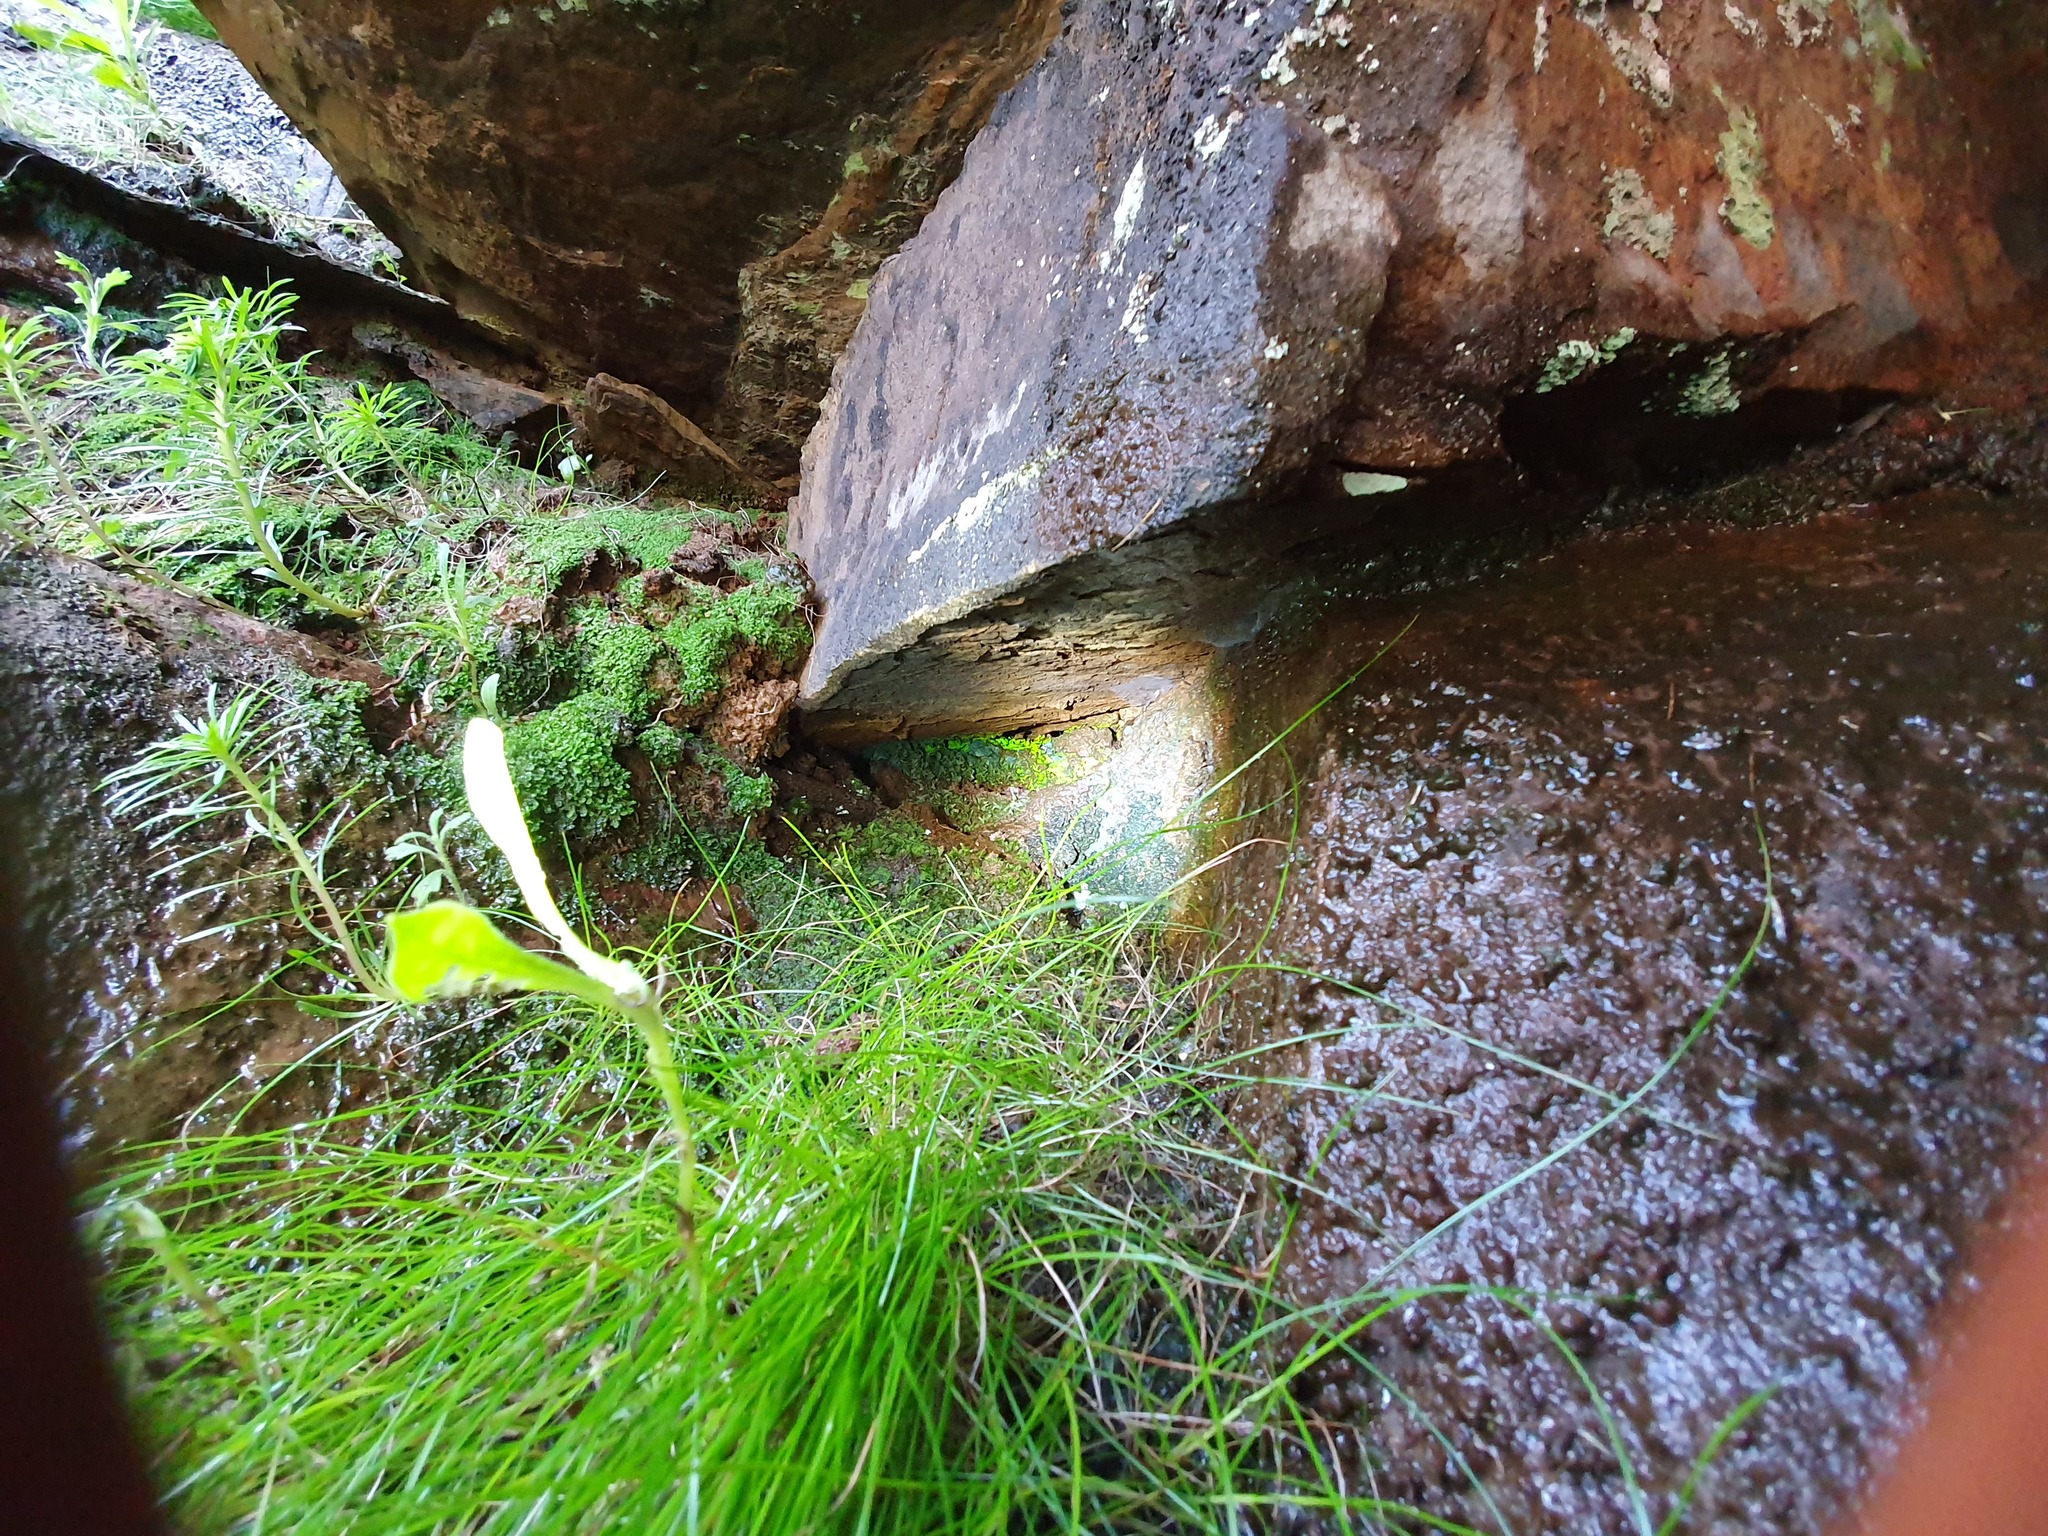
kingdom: Plantae
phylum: Bryophyta
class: Bryopsida
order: Pottiales
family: Mitteniaceae
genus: Mittenia
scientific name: Mittenia plumula
